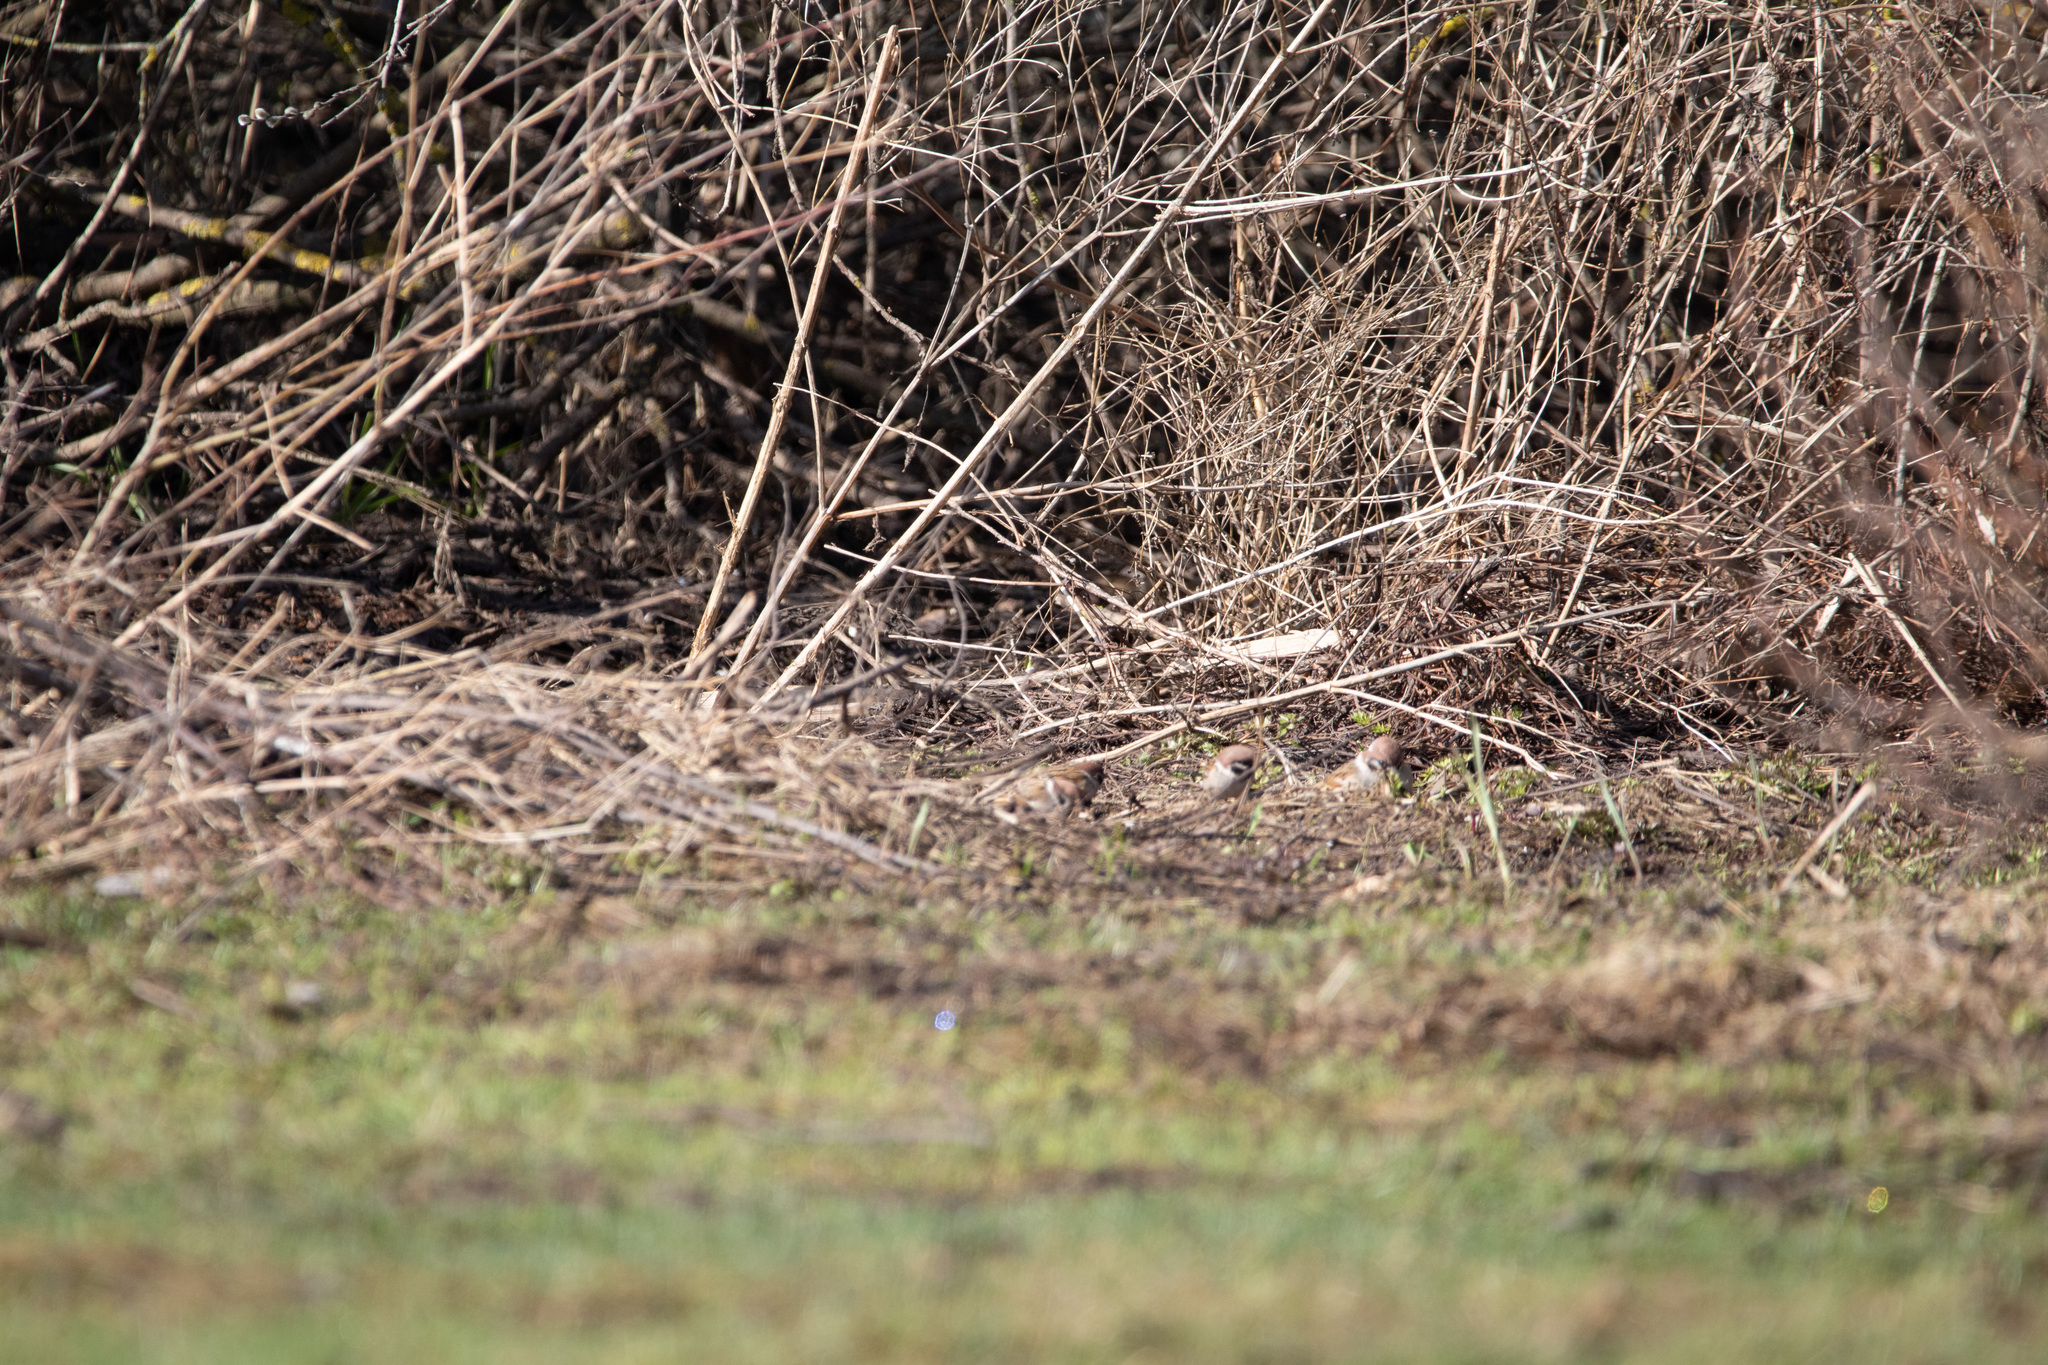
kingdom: Animalia
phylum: Chordata
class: Aves
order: Passeriformes
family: Passeridae
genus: Passer
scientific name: Passer montanus
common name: Eurasian tree sparrow
